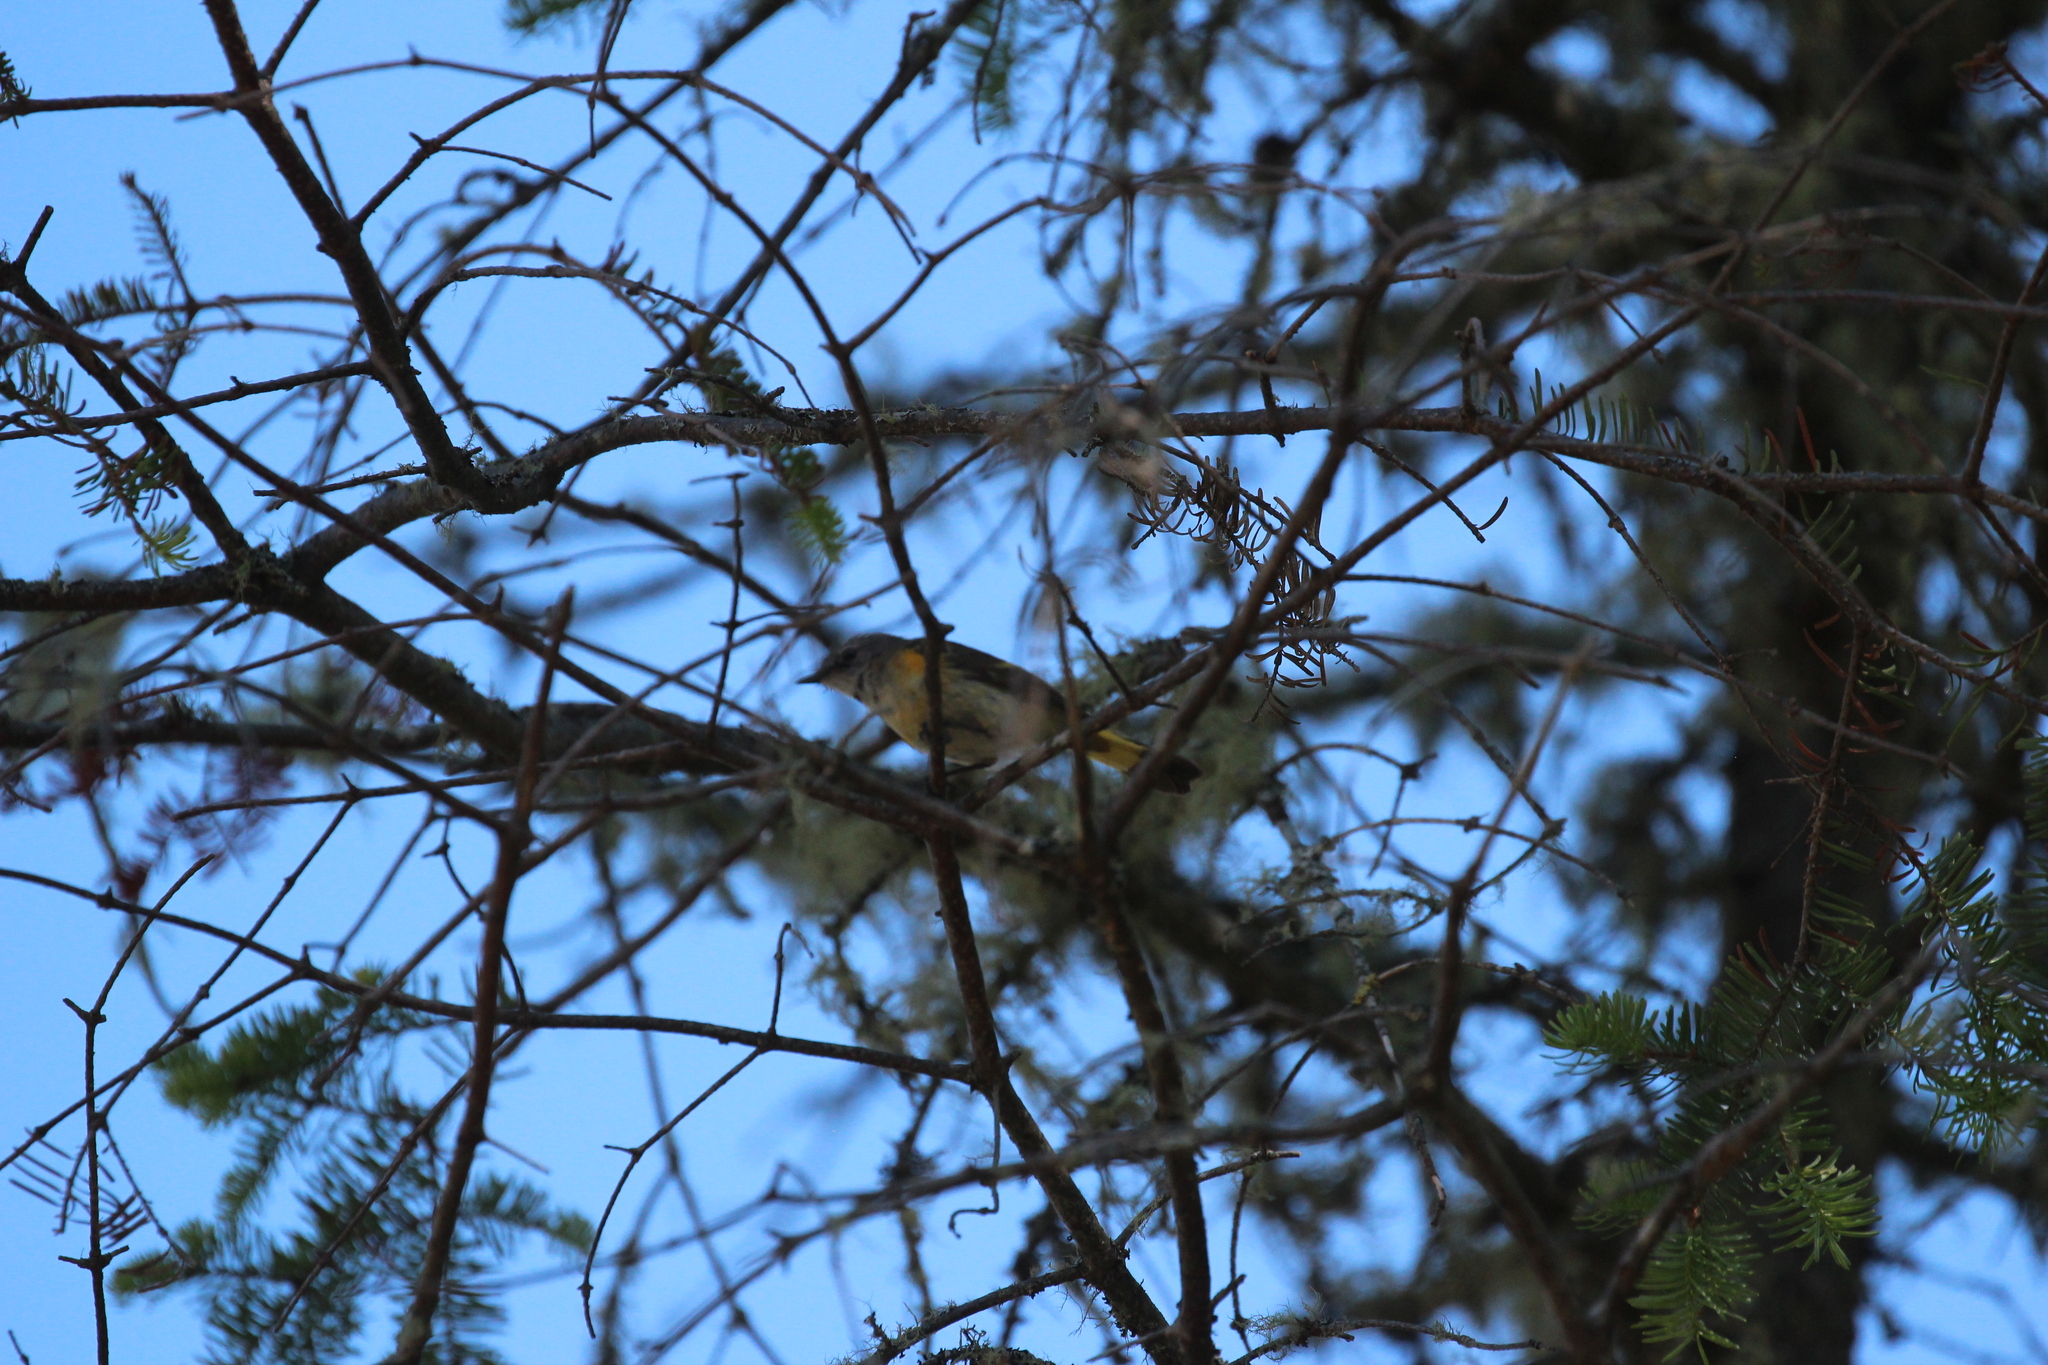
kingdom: Animalia
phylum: Chordata
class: Aves
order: Passeriformes
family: Parulidae
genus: Setophaga
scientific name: Setophaga ruticilla
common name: American redstart
